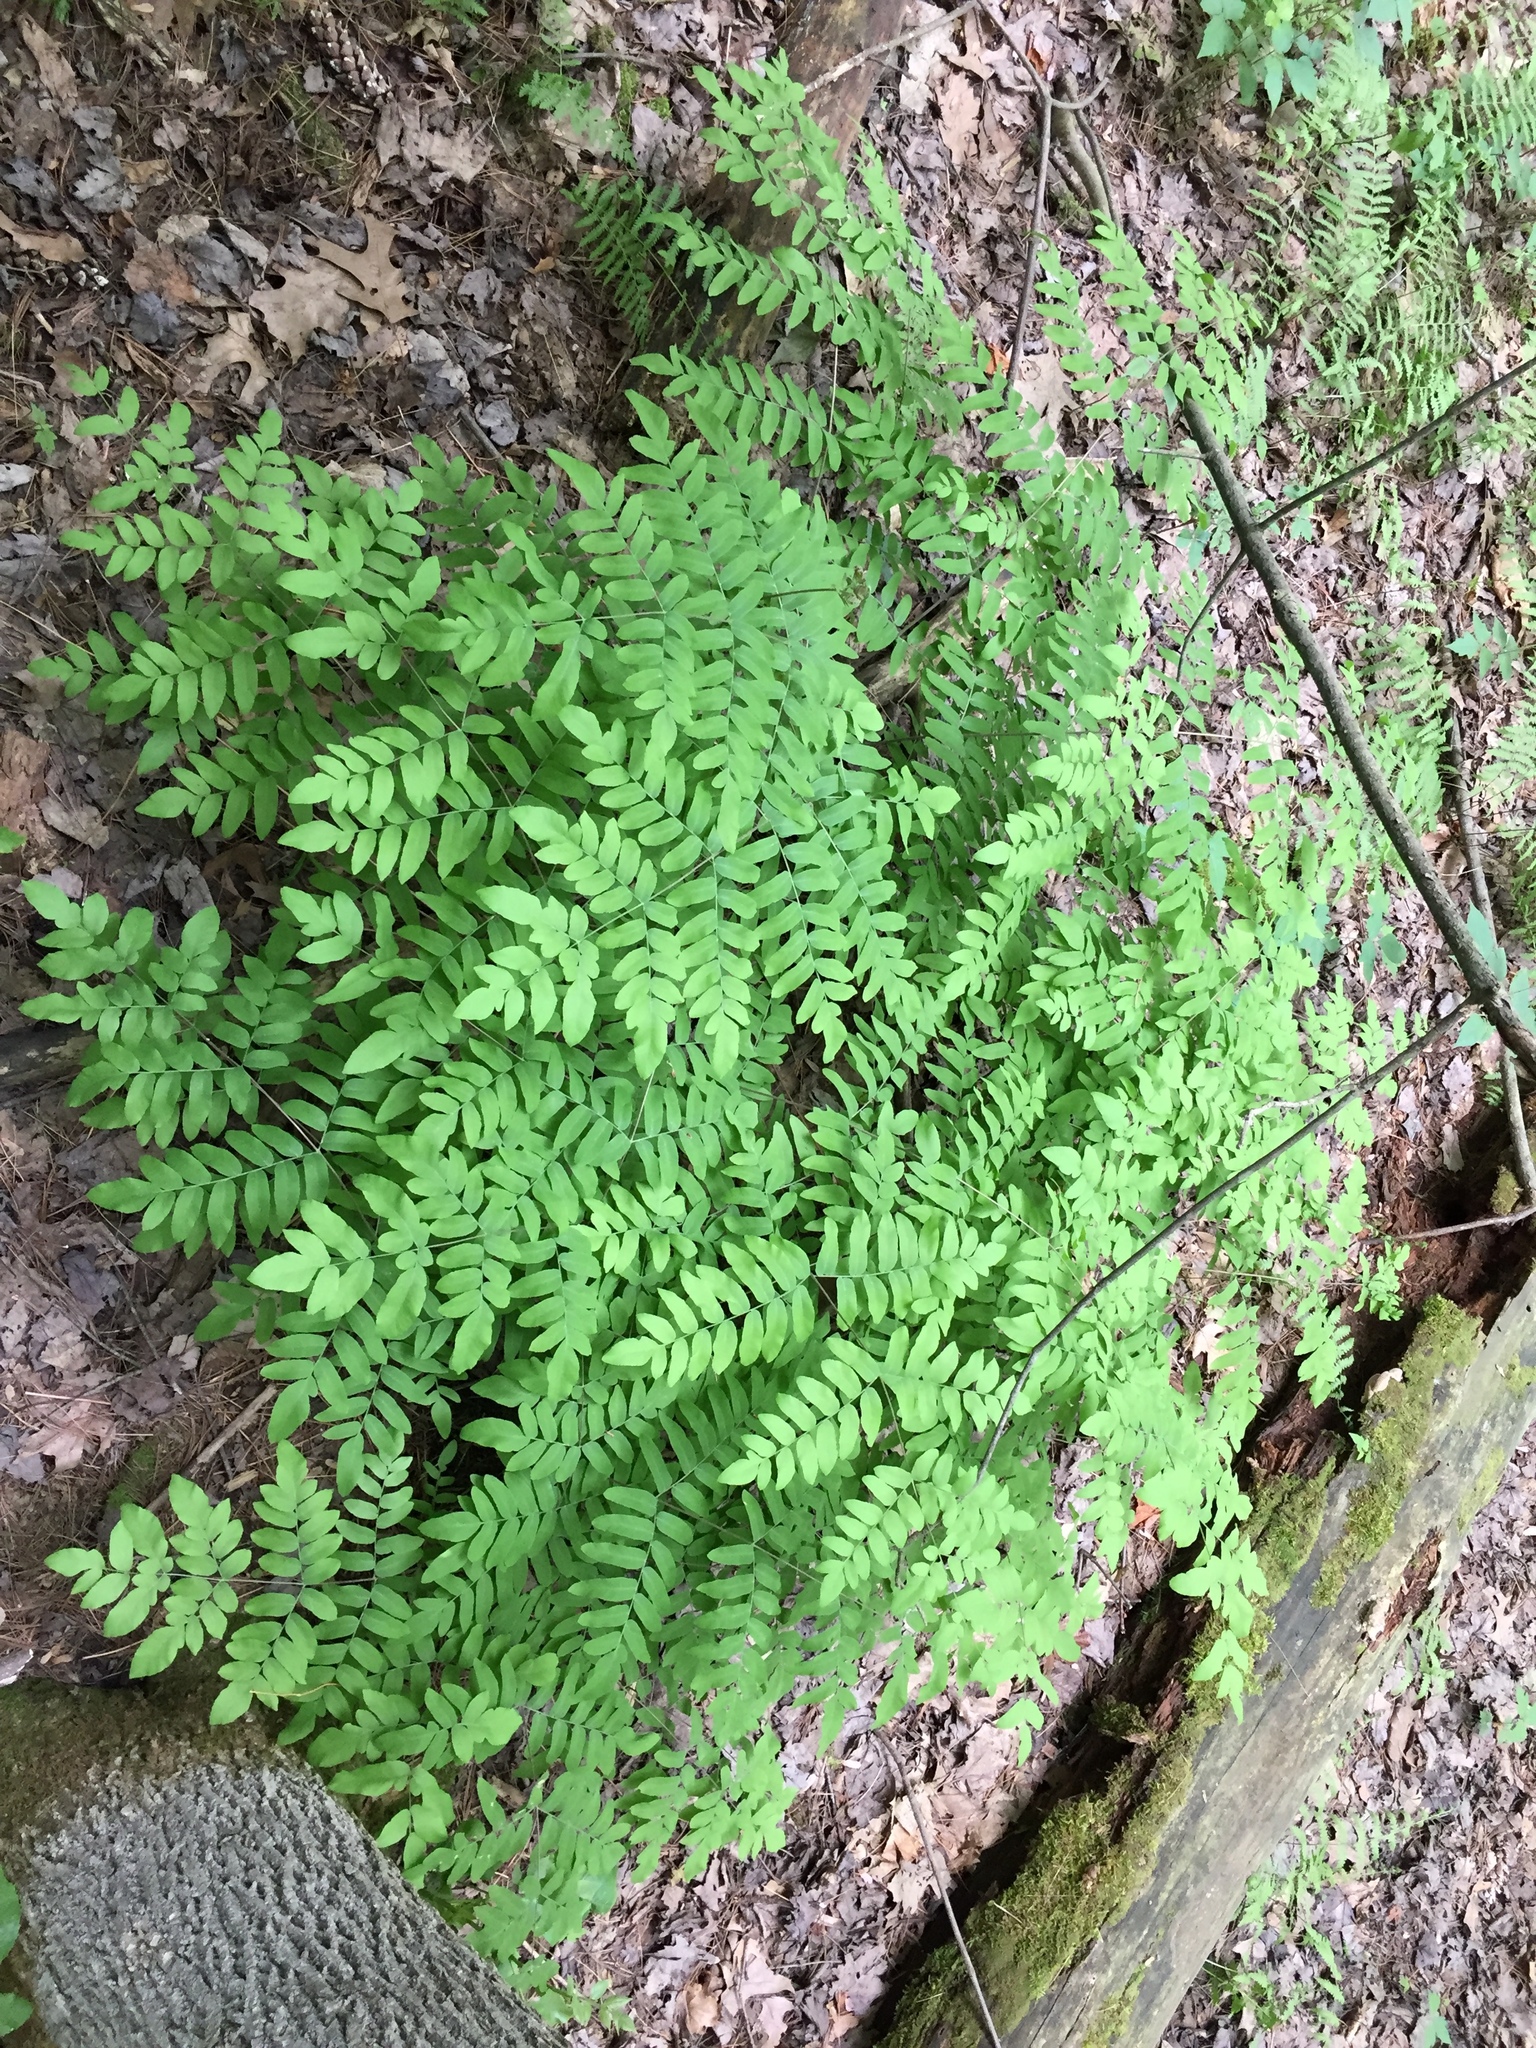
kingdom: Plantae
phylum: Tracheophyta
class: Polypodiopsida
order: Osmundales
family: Osmundaceae
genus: Osmunda
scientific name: Osmunda spectabilis
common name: American royal fern
